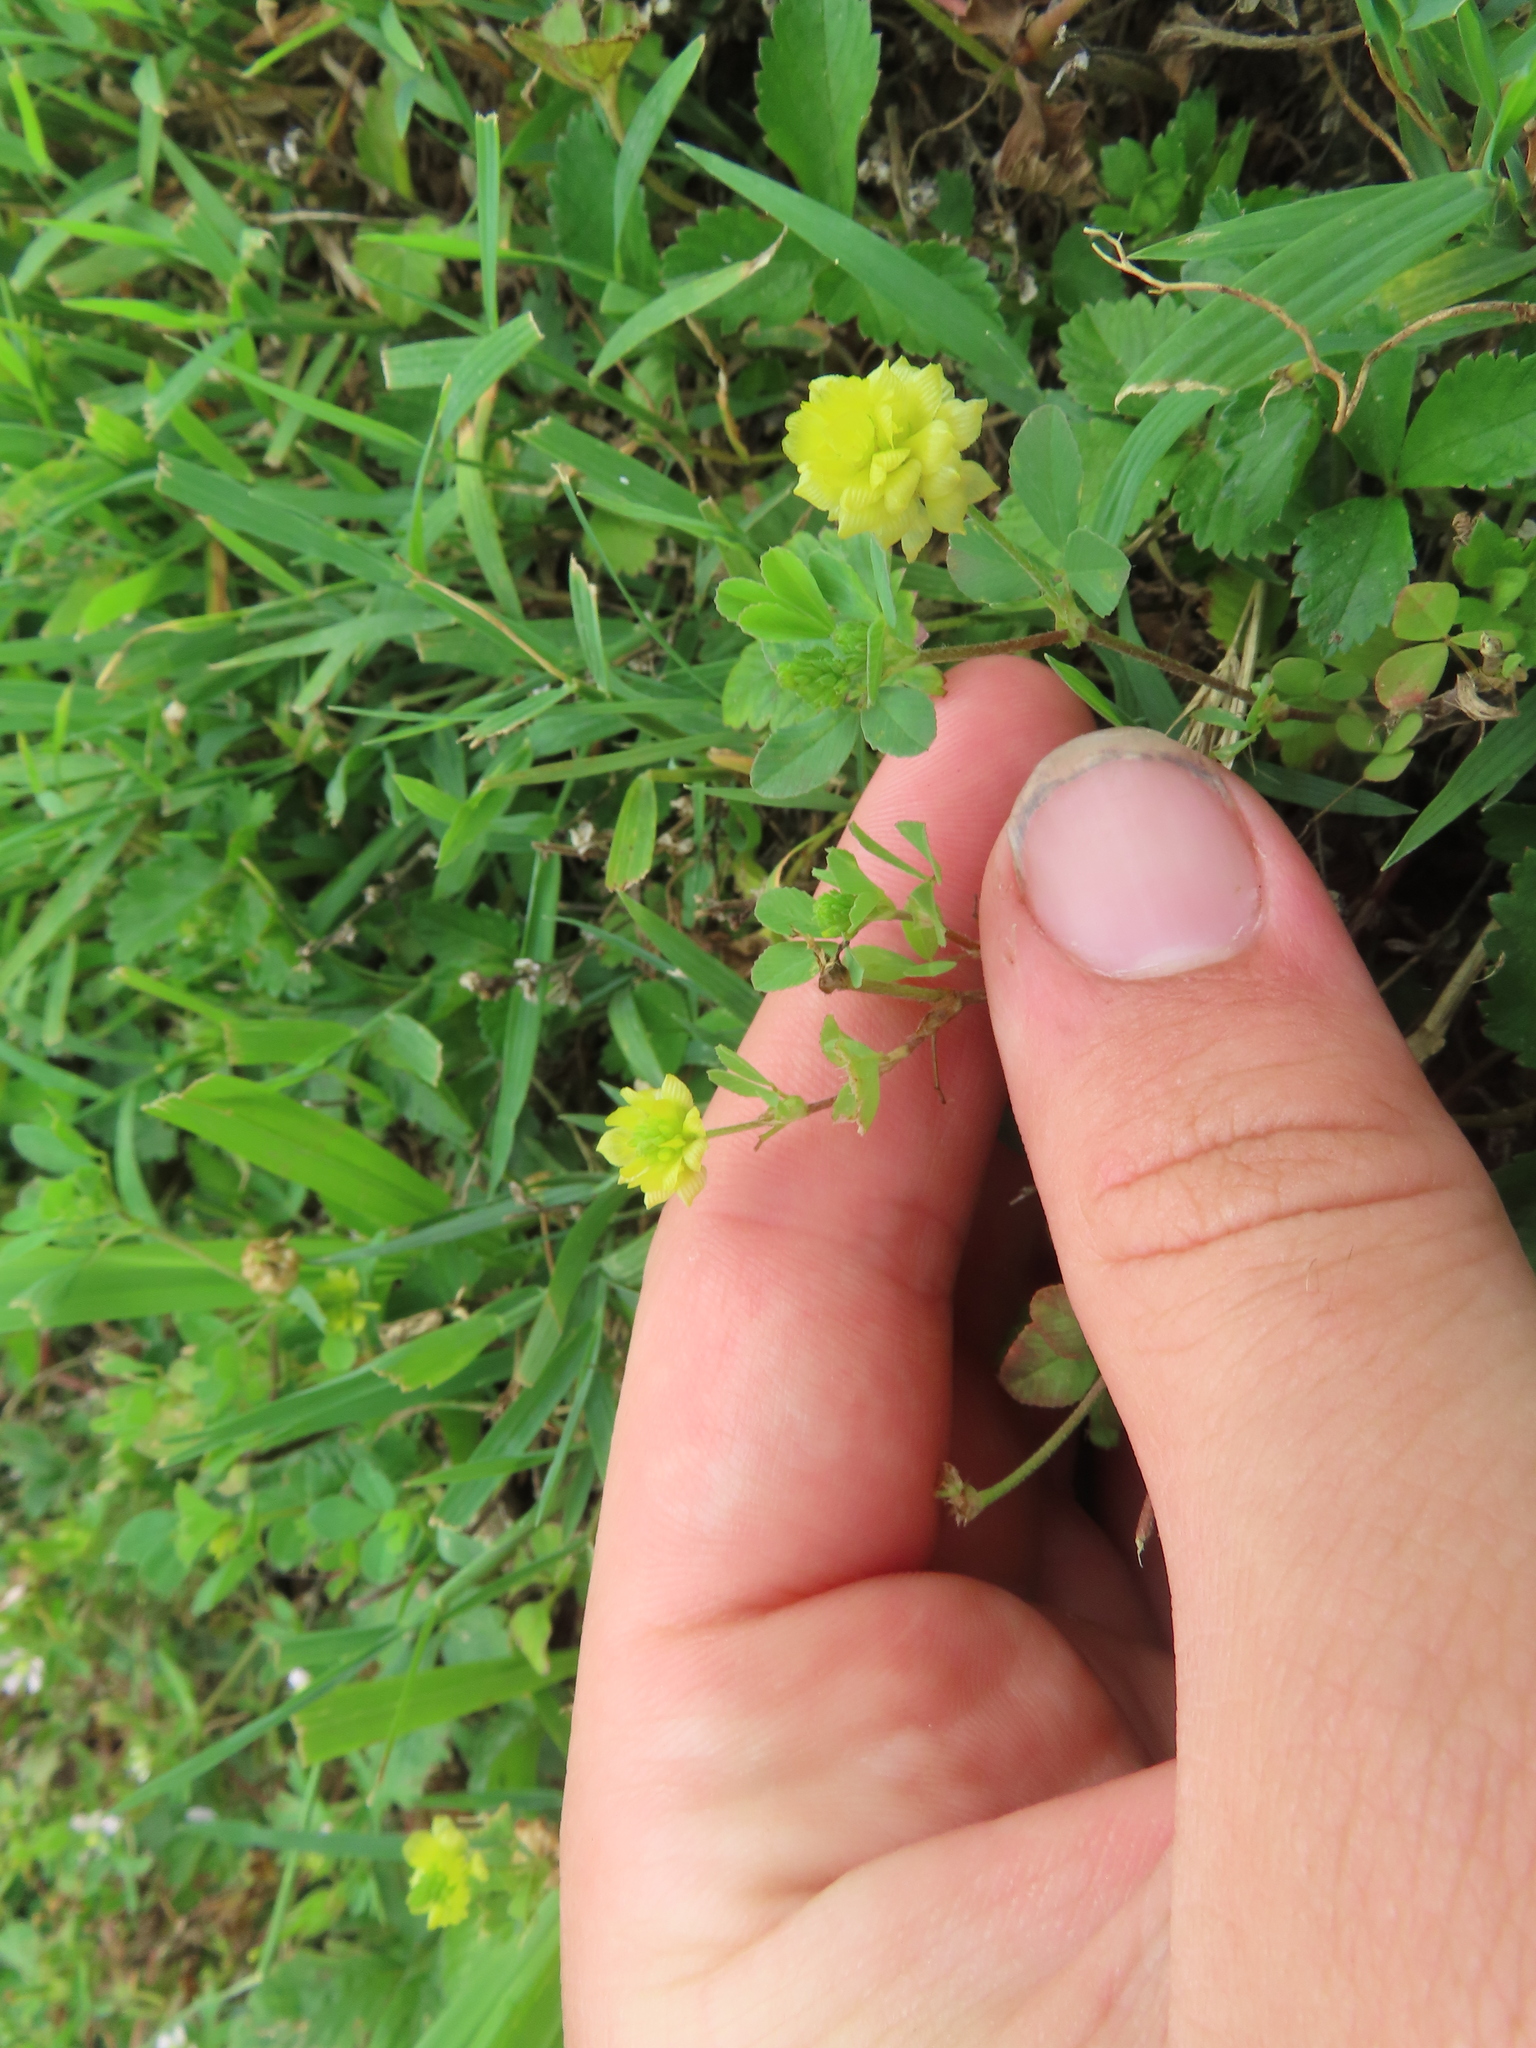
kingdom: Plantae
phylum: Tracheophyta
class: Magnoliopsida
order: Fabales
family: Fabaceae
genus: Trifolium
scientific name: Trifolium campestre
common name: Field clover
